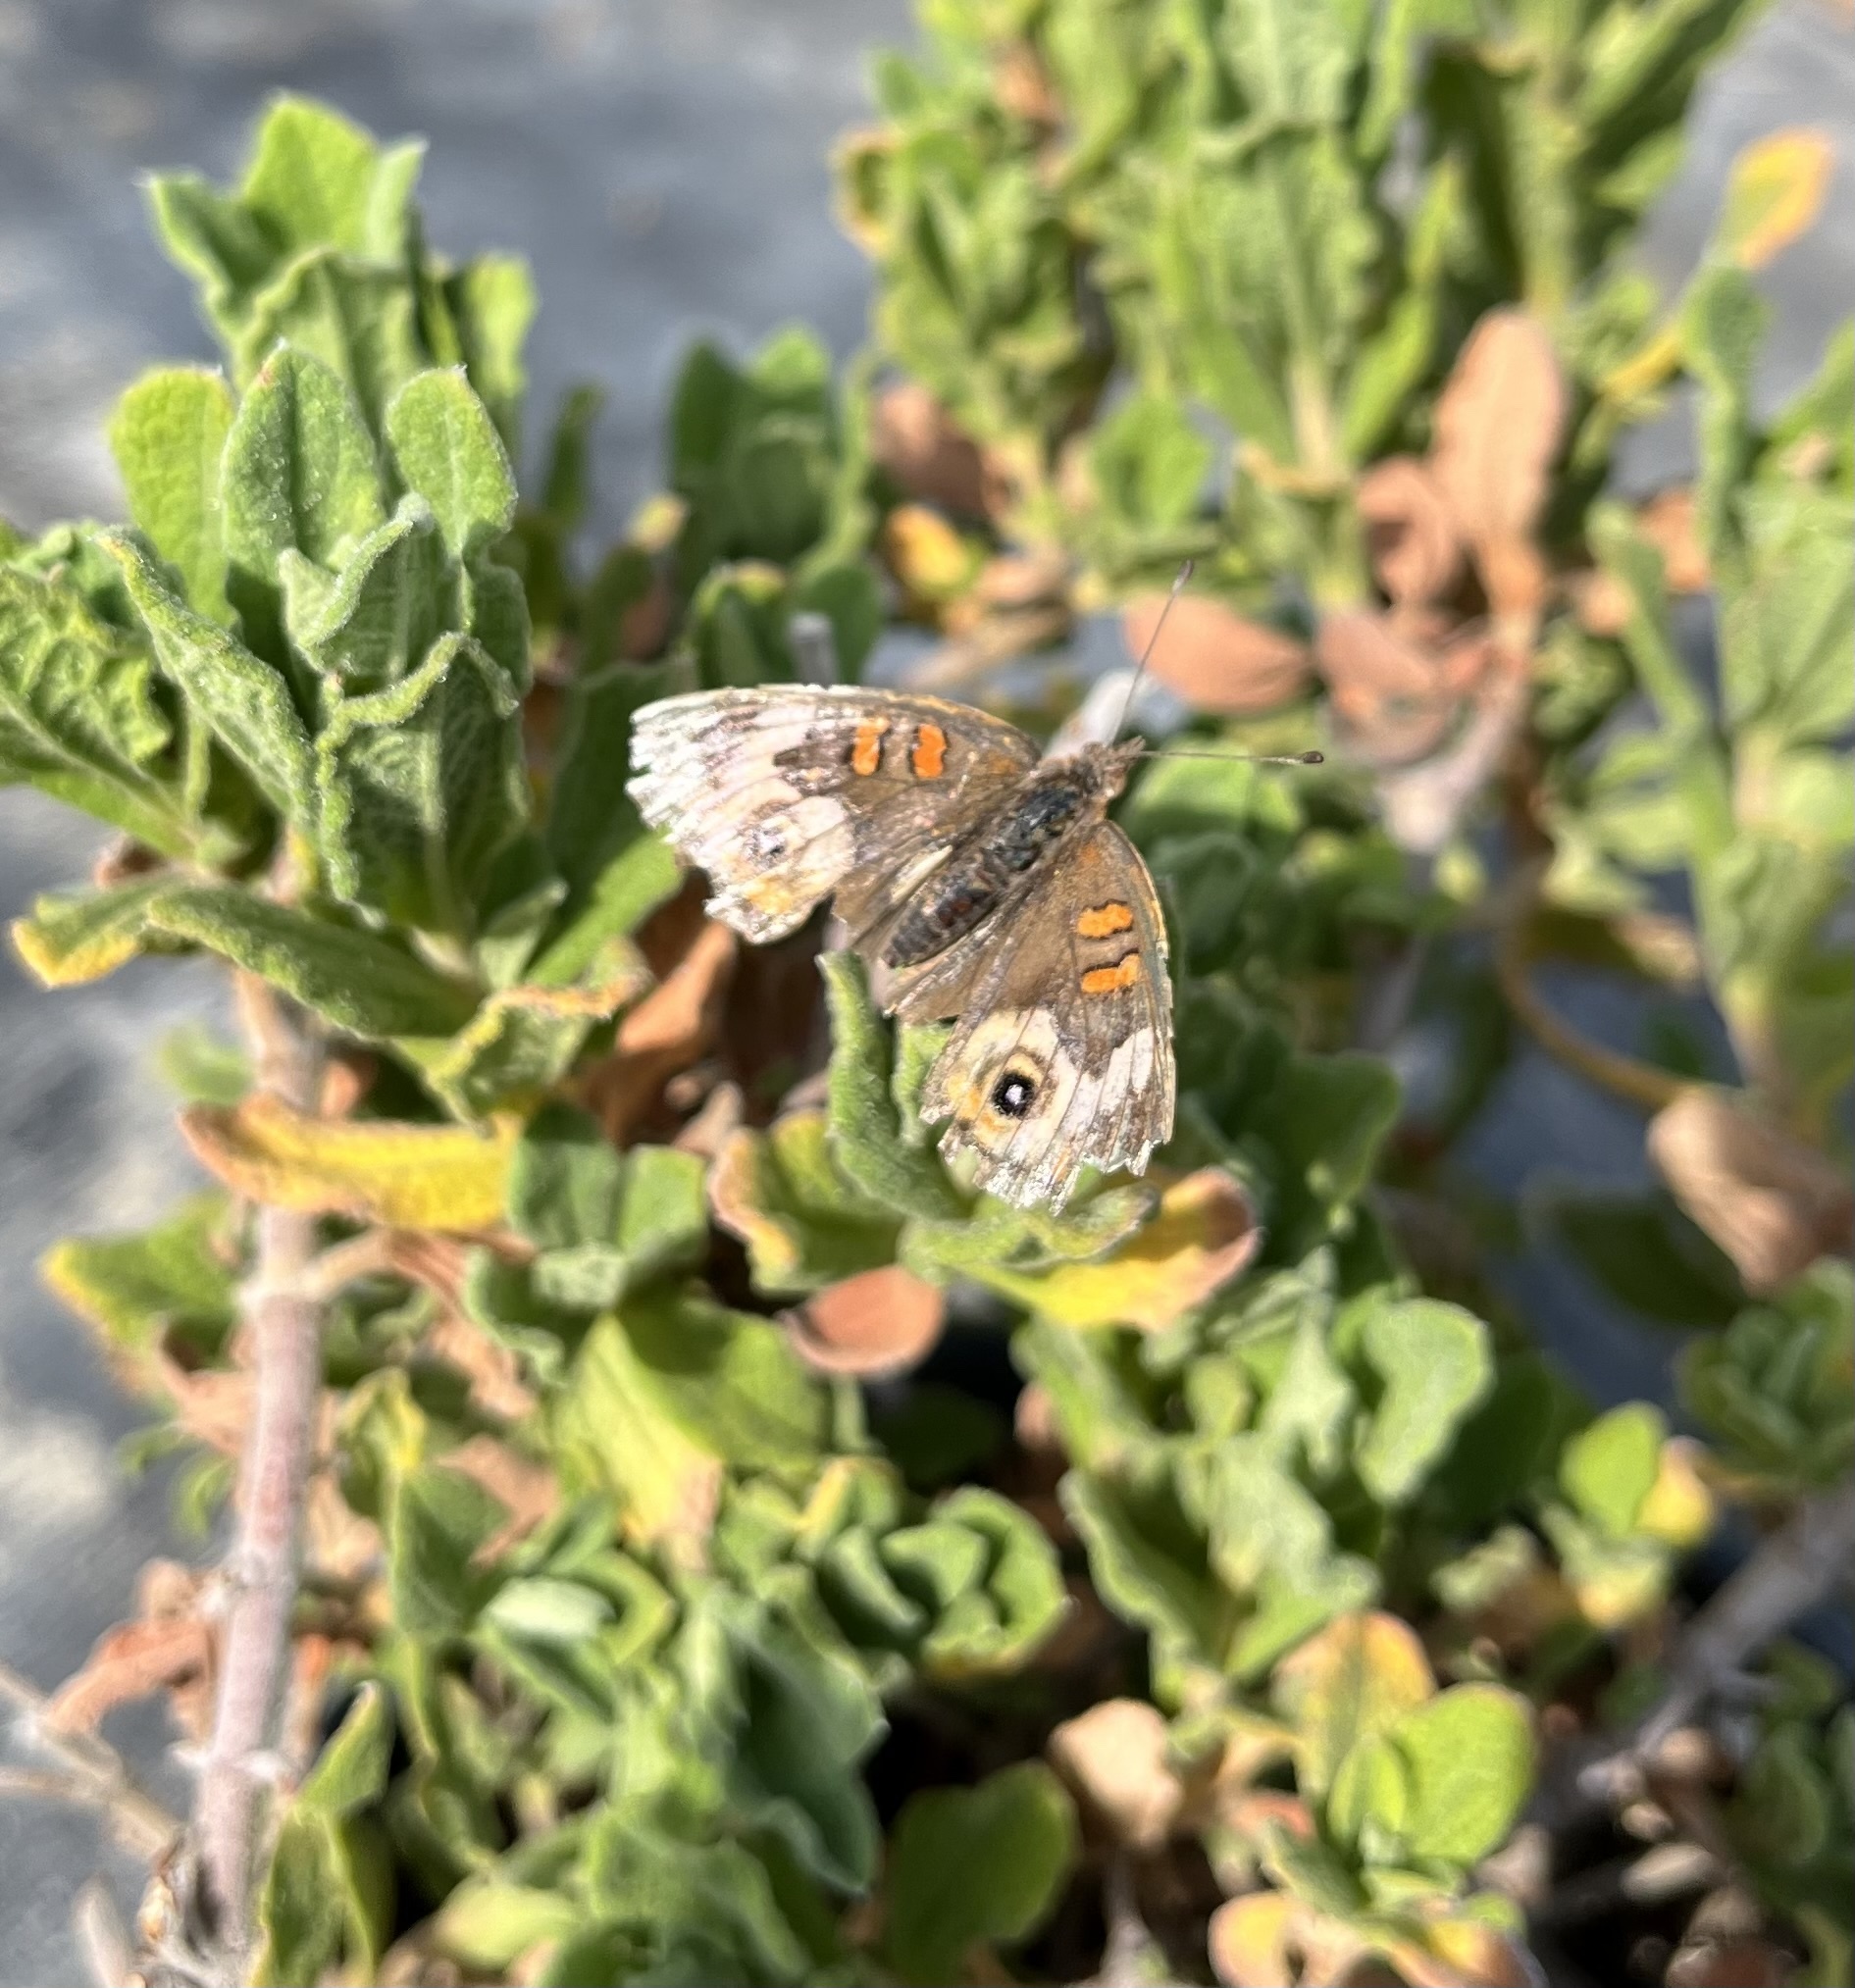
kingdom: Animalia
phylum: Arthropoda
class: Insecta
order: Lepidoptera
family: Nymphalidae
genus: Junonia
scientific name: Junonia grisea
